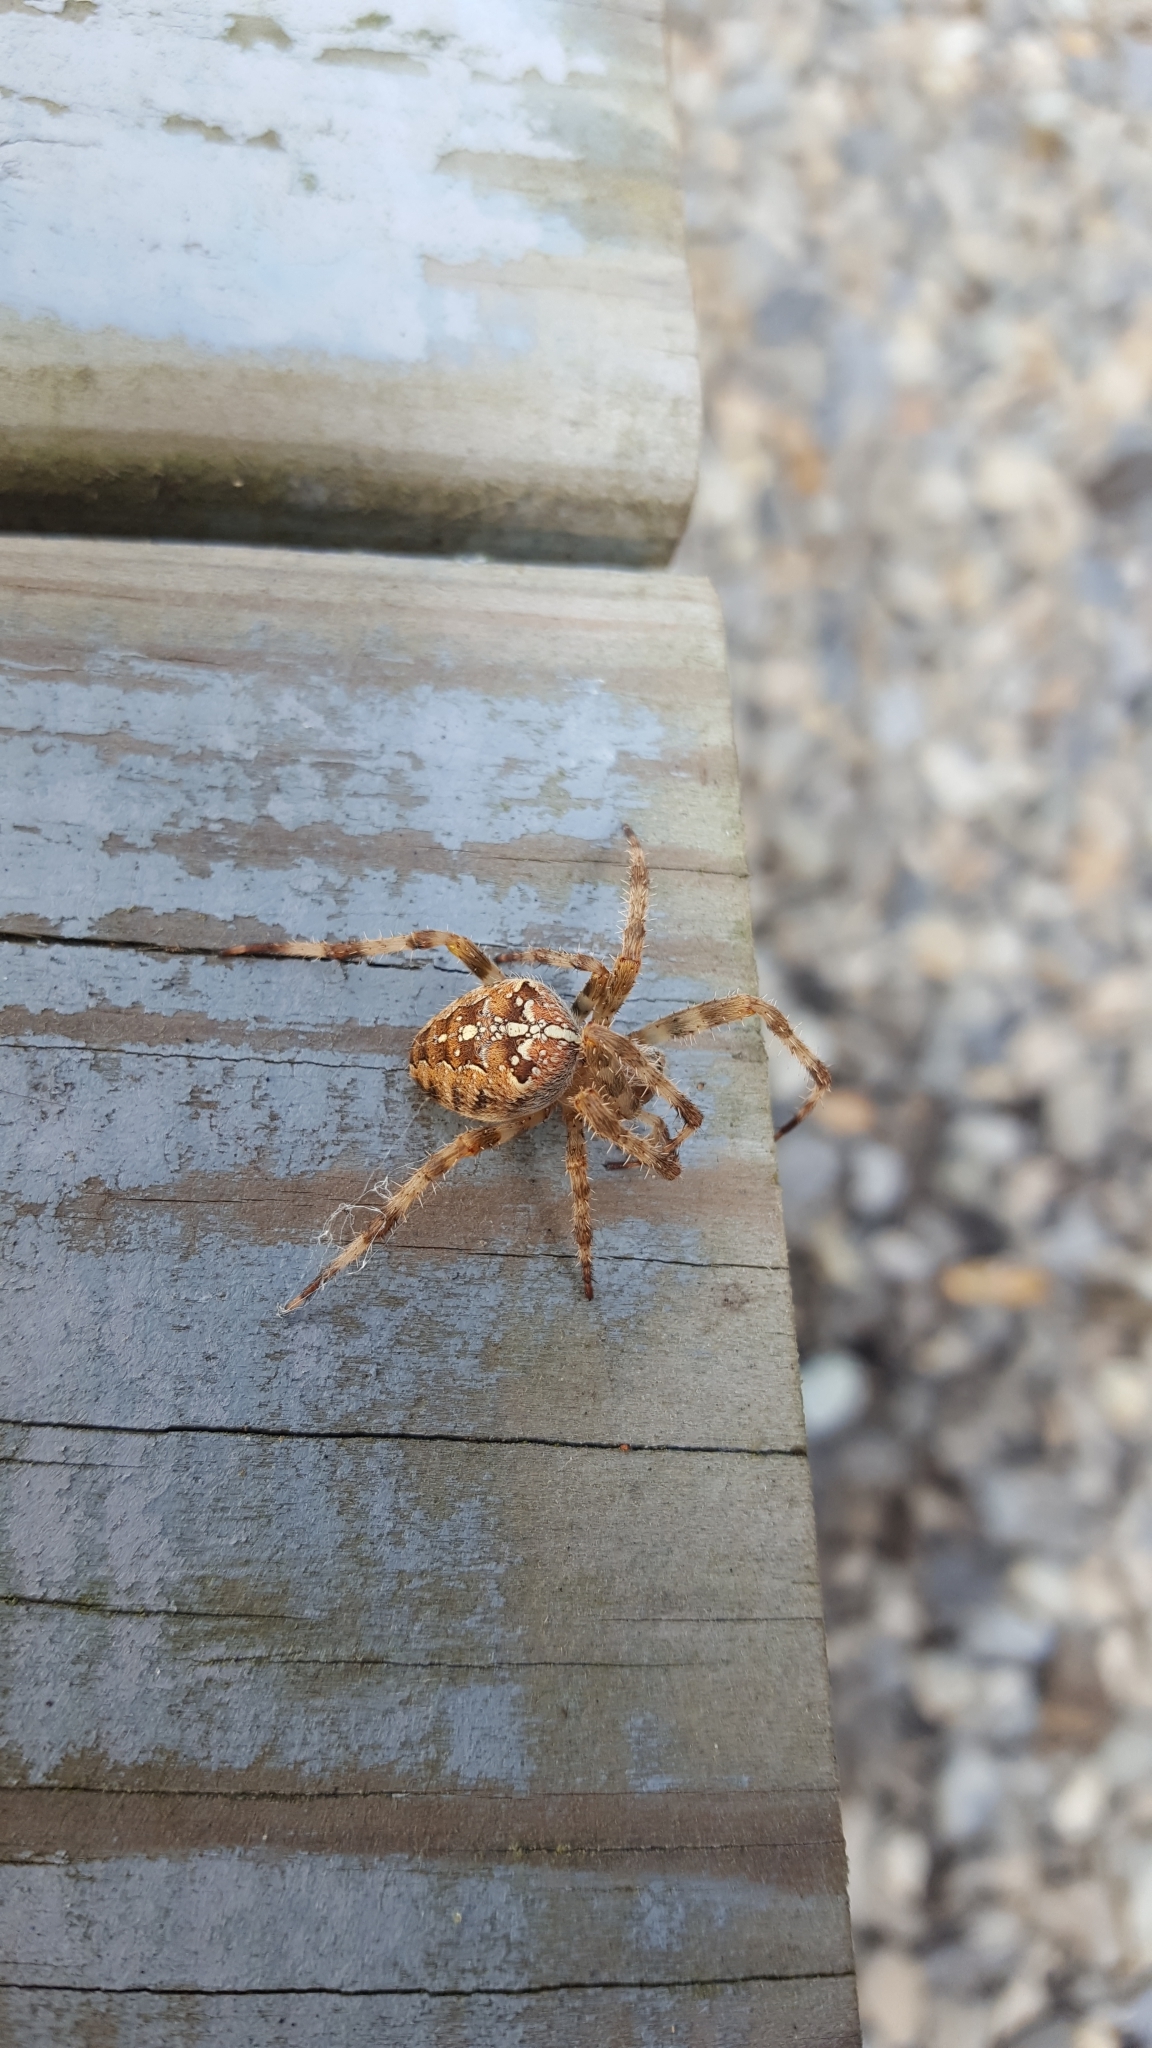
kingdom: Animalia
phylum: Arthropoda
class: Arachnida
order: Araneae
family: Araneidae
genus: Araneus
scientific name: Araneus diadematus
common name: Cross orbweaver
